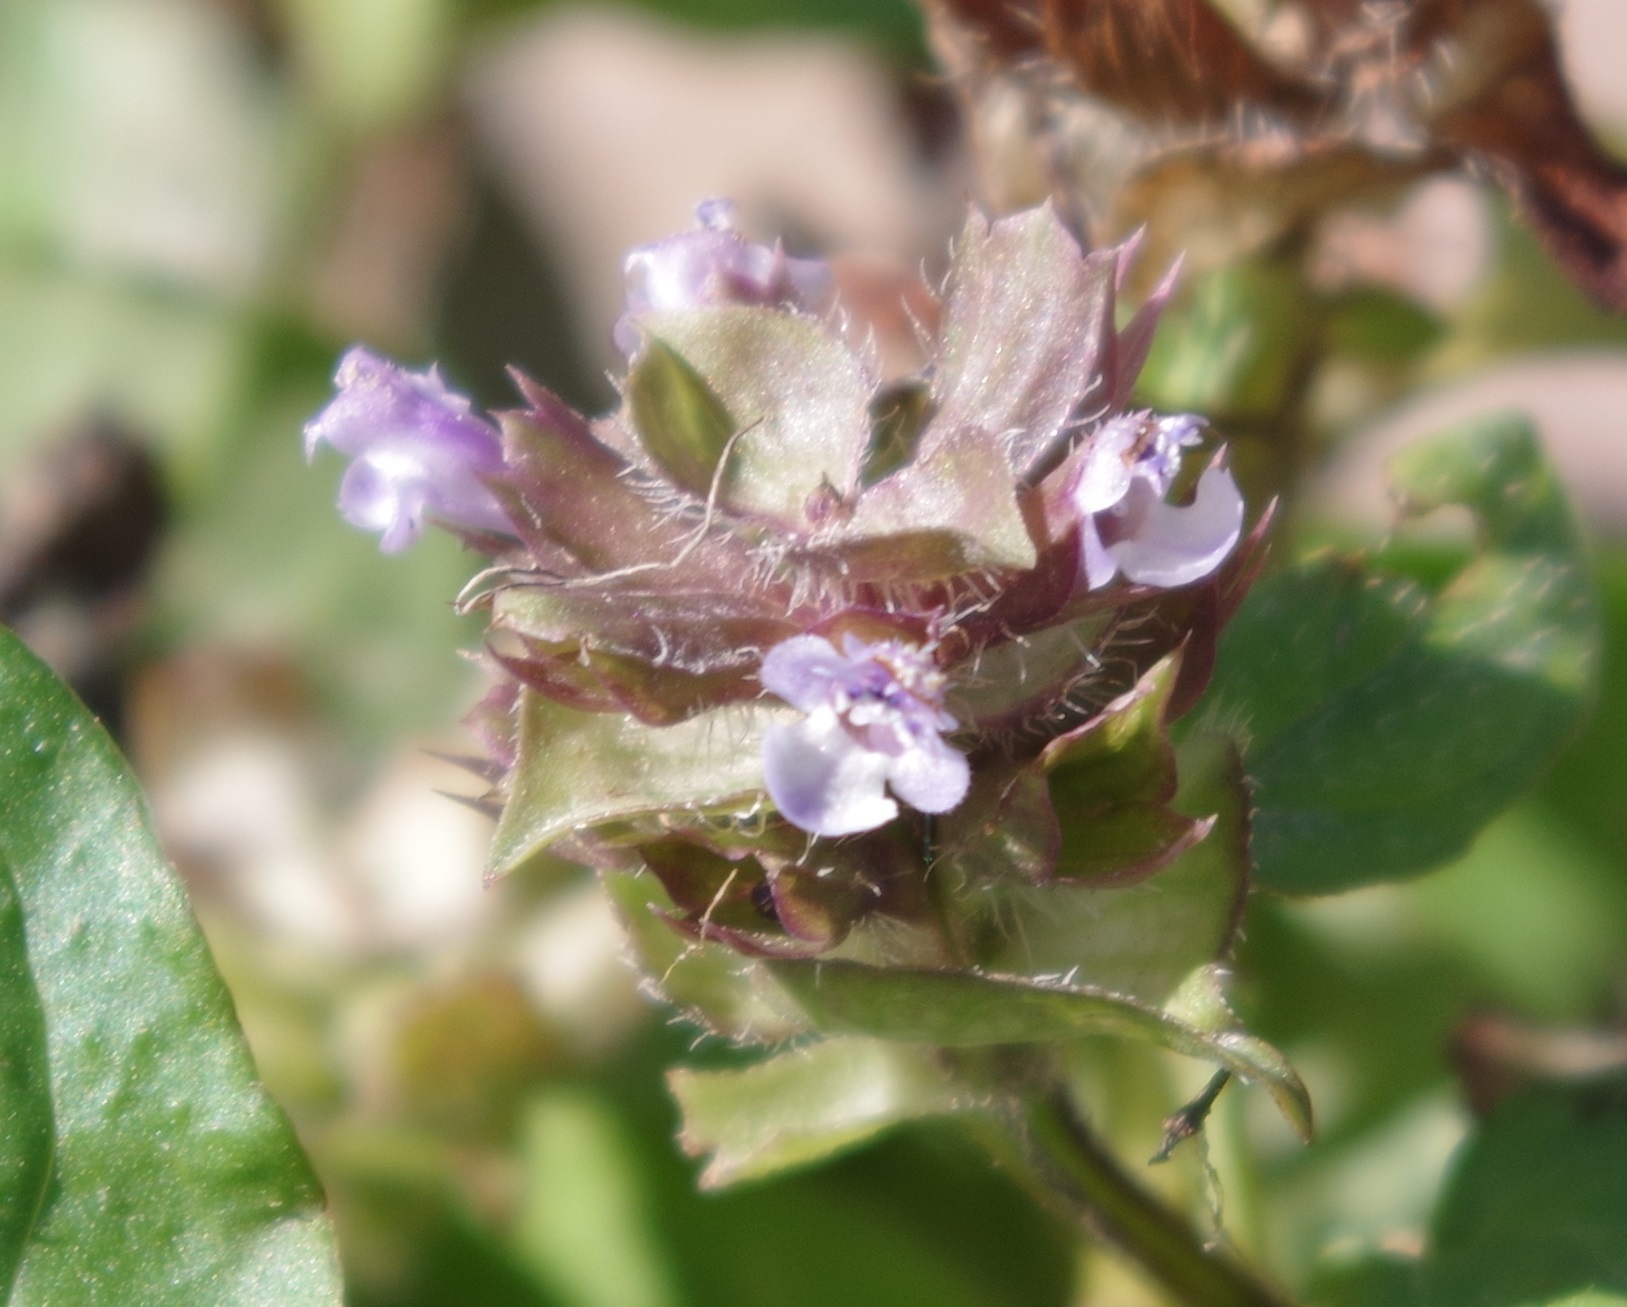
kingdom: Plantae
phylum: Tracheophyta
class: Magnoliopsida
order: Lamiales
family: Lamiaceae
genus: Prunella
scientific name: Prunella vulgaris
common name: Heal-all
